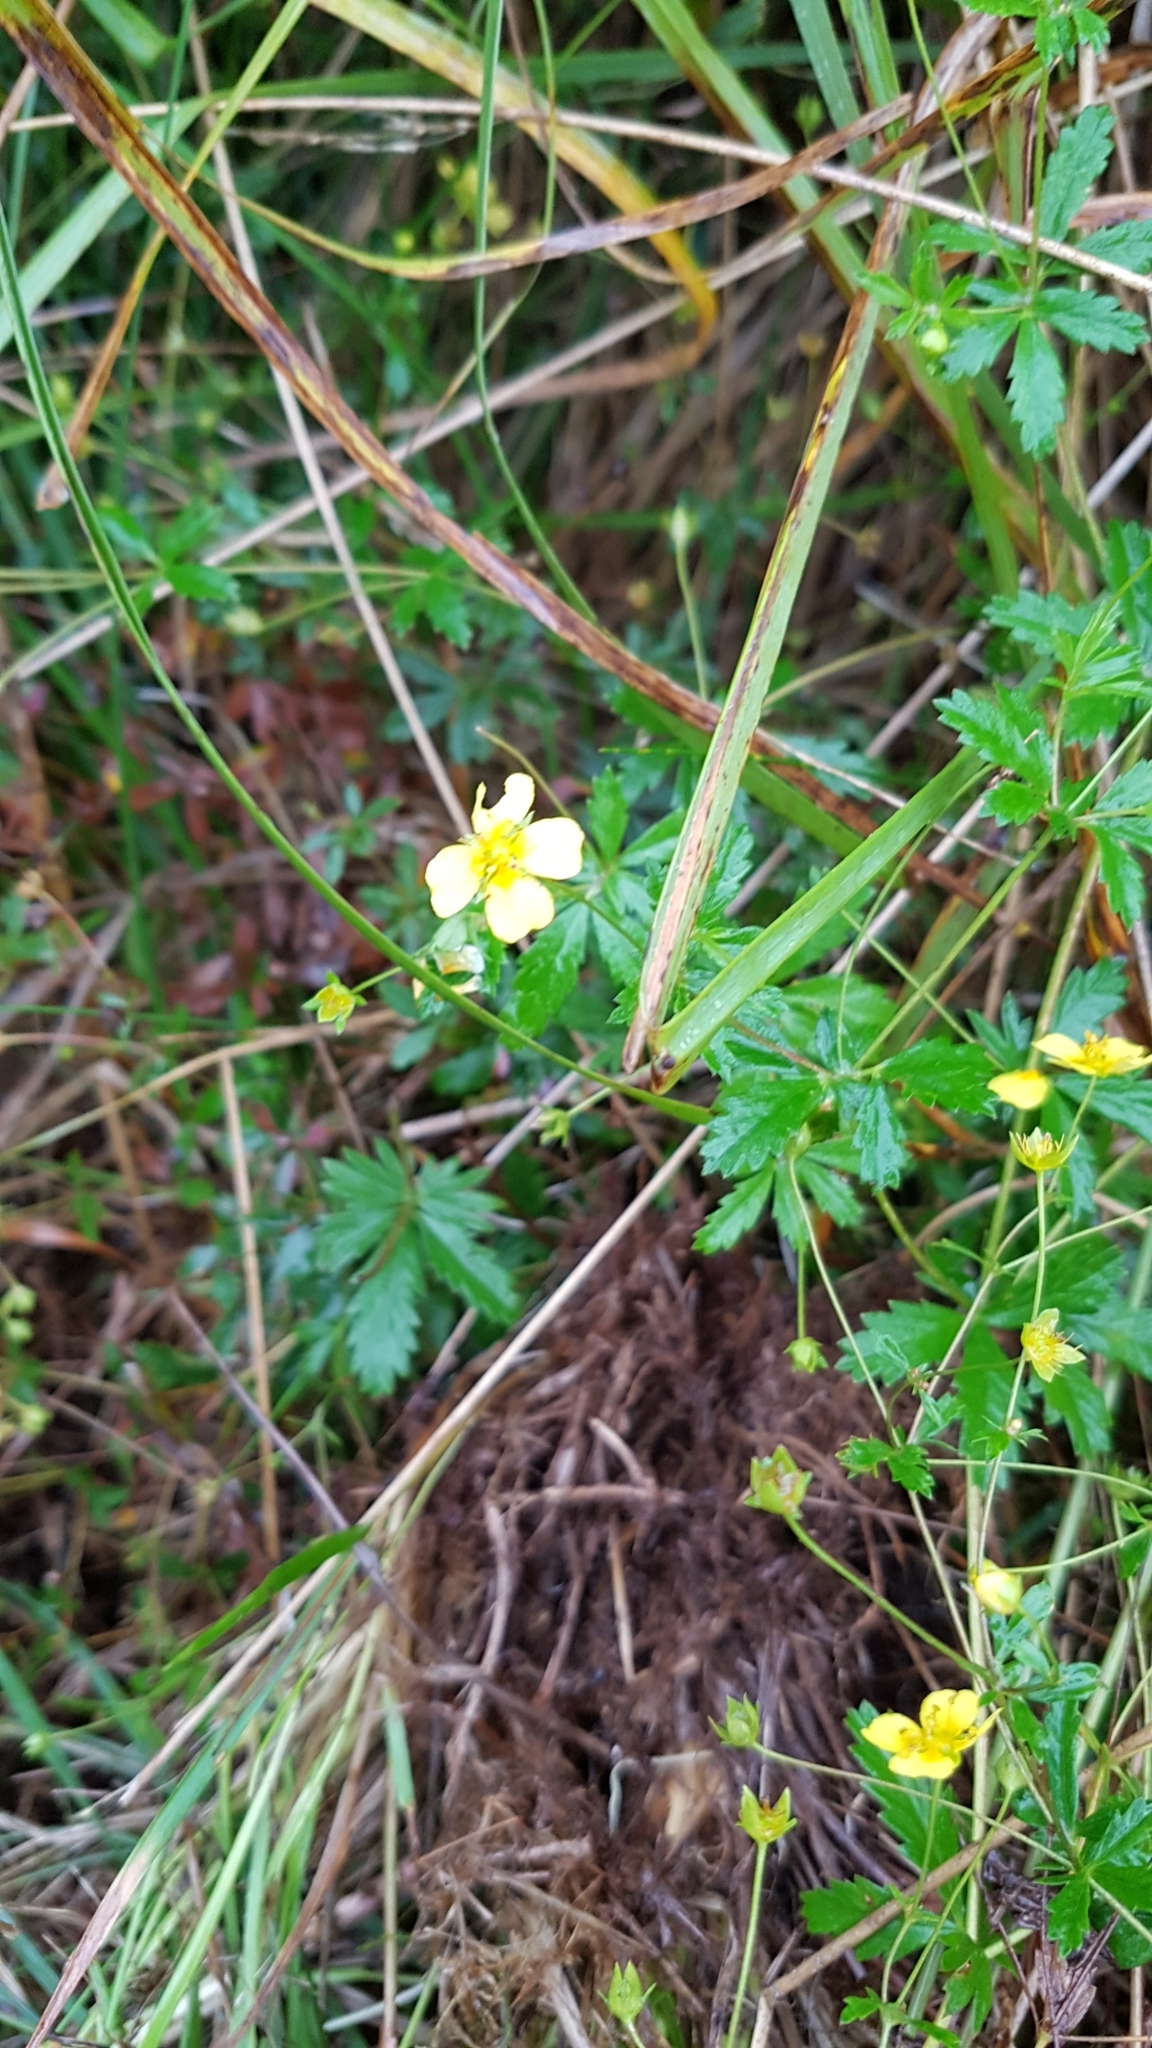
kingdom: Plantae
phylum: Tracheophyta
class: Magnoliopsida
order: Rosales
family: Rosaceae
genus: Potentilla
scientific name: Potentilla erecta
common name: Tormentil
